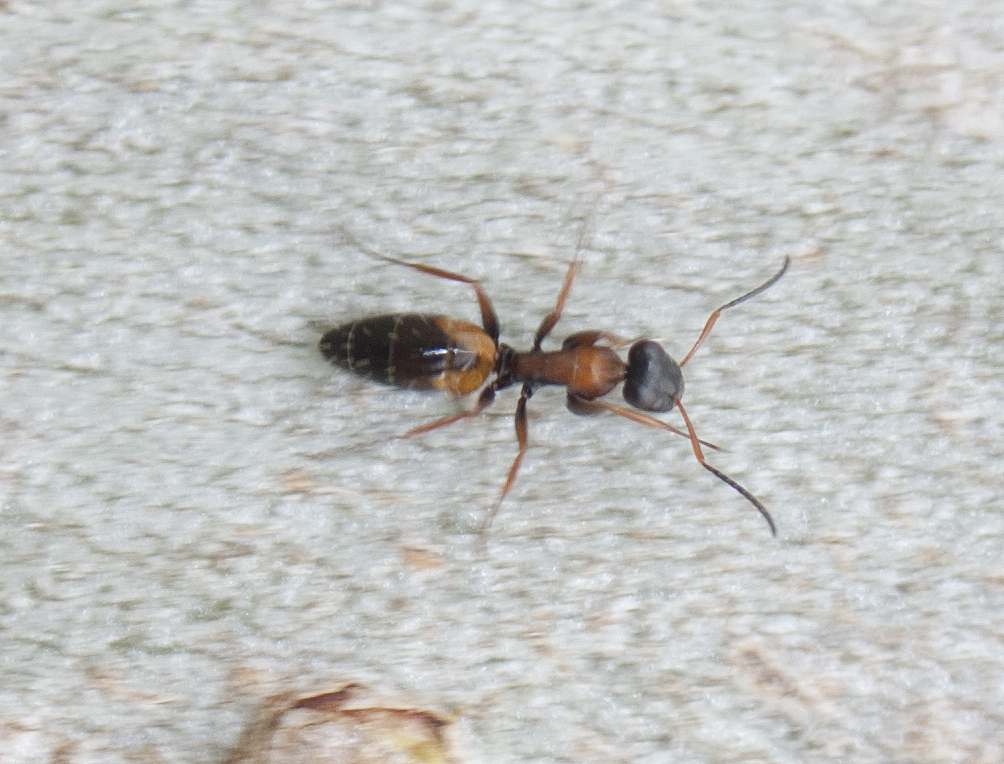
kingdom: Animalia
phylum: Arthropoda
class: Insecta
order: Hymenoptera
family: Formicidae
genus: Opisthopsis
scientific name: Opisthopsis pictus
